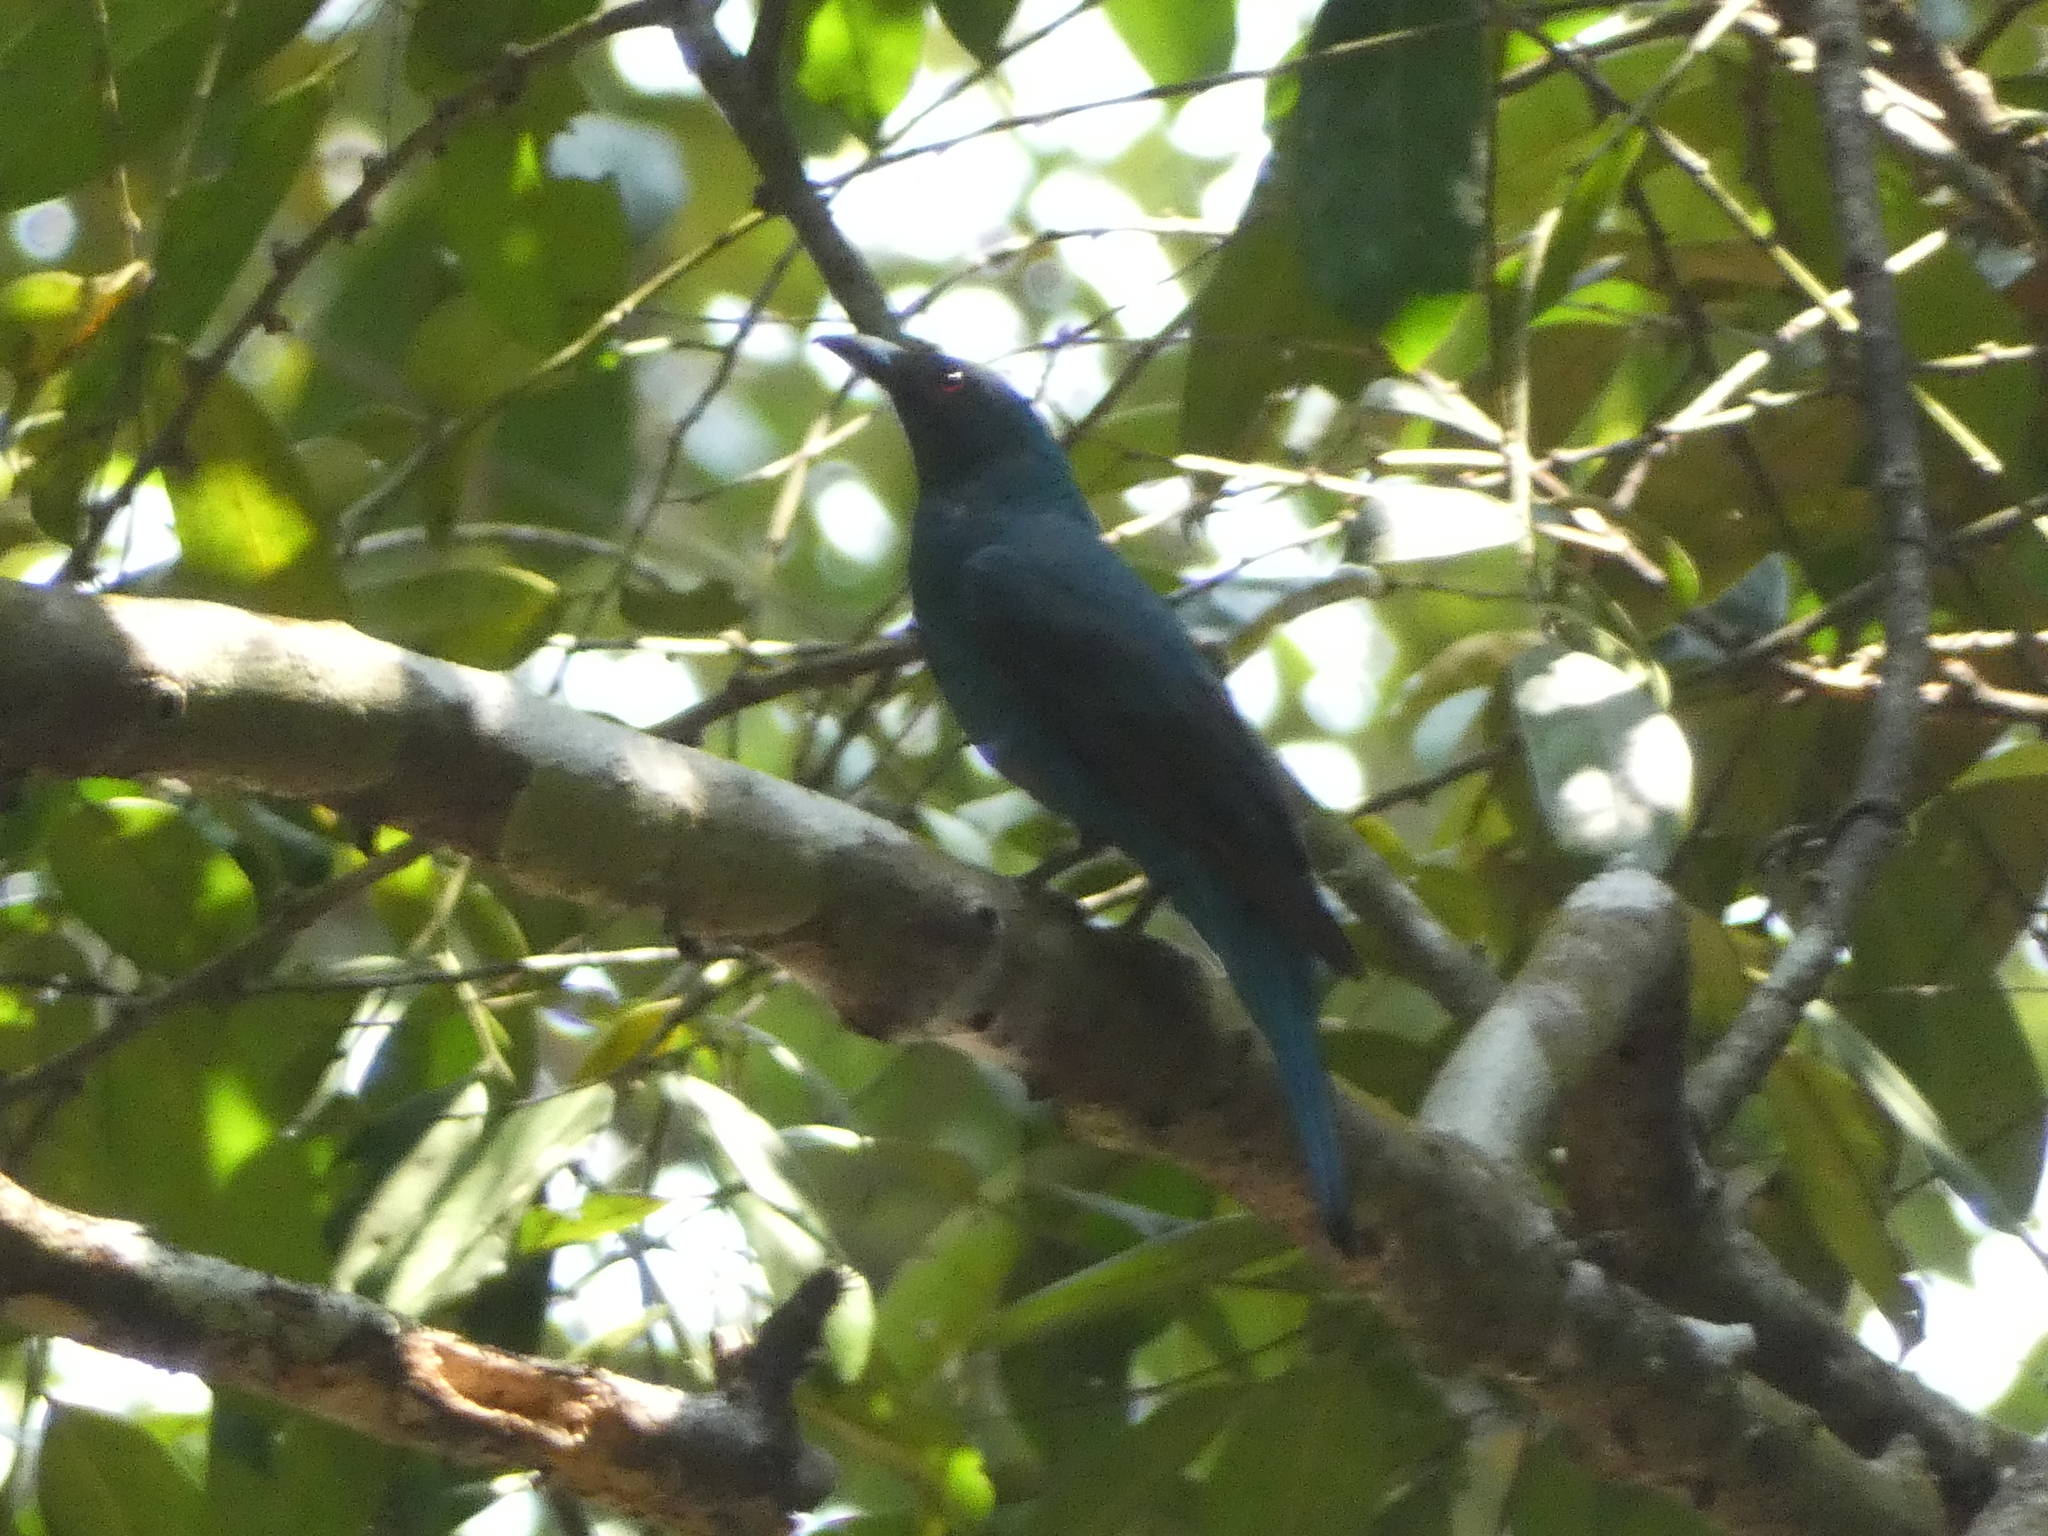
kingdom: Animalia
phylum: Chordata
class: Aves
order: Passeriformes
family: Irenidae
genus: Irena
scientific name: Irena puella
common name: Asian fairy-bluebird
